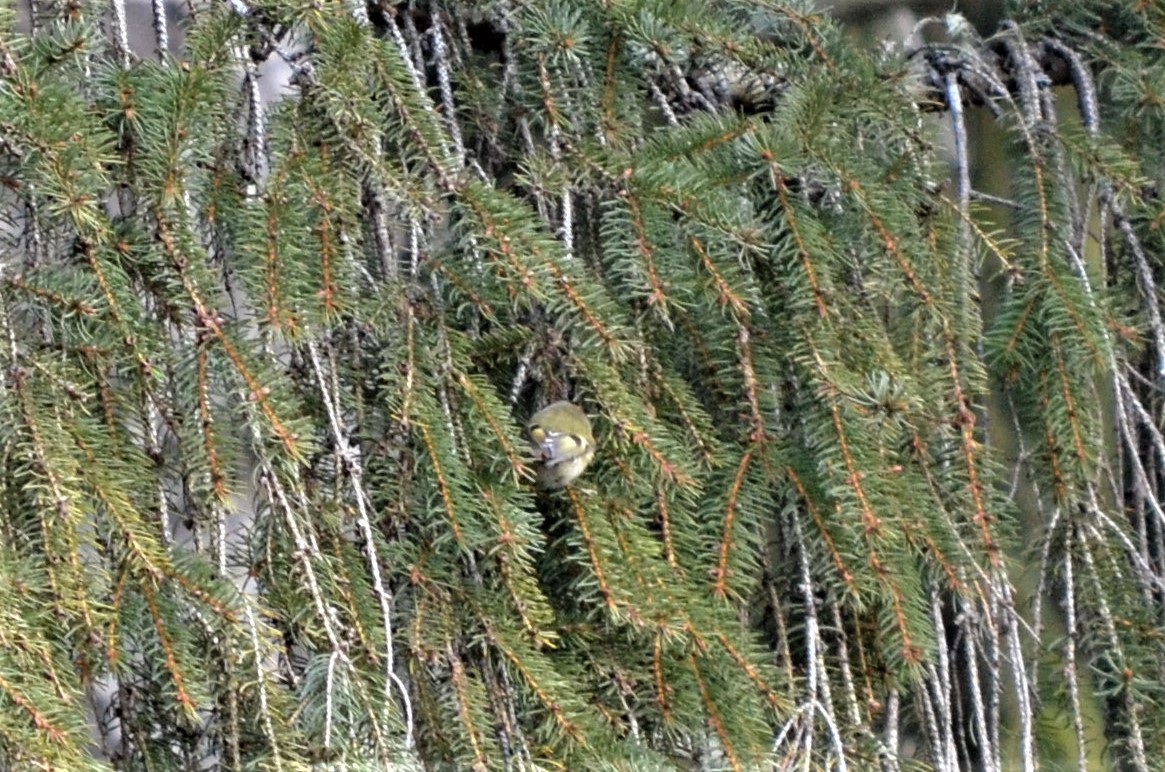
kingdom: Animalia
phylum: Chordata
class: Aves
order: Passeriformes
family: Regulidae
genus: Regulus
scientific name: Regulus regulus
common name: Goldcrest
